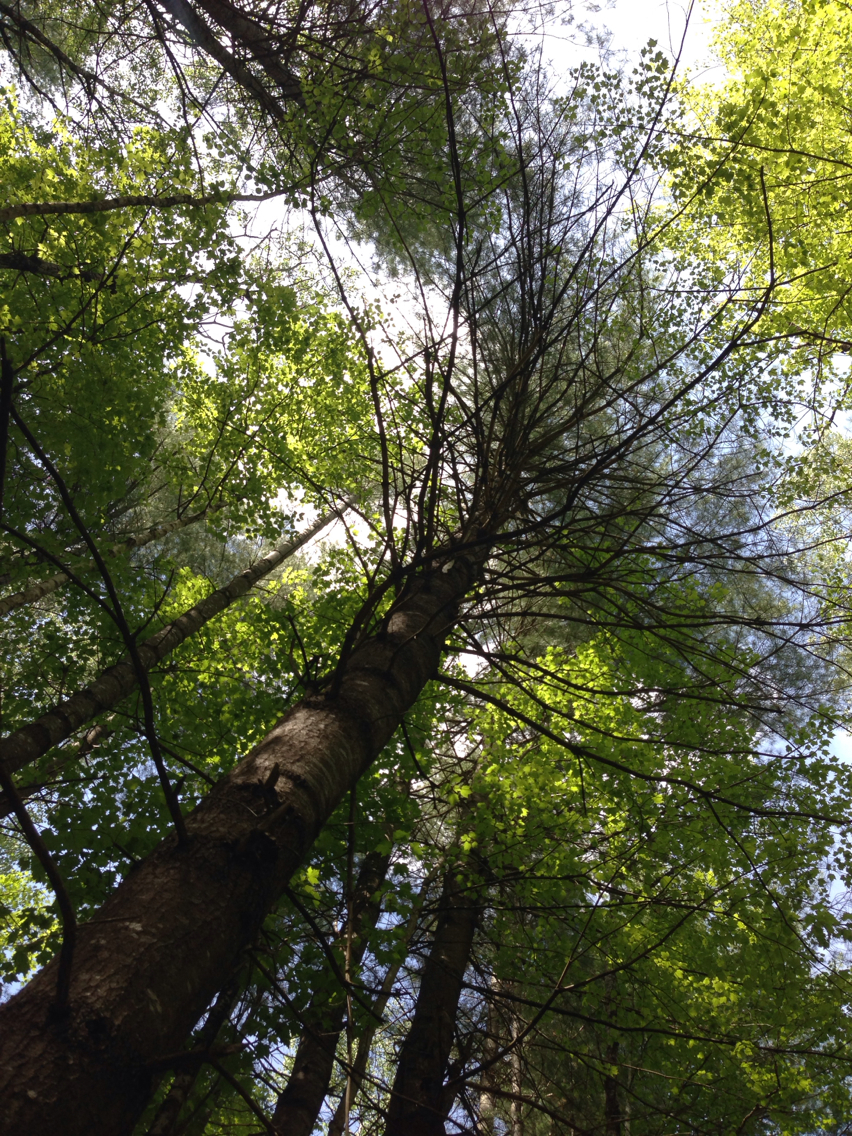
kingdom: Plantae
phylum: Tracheophyta
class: Pinopsida
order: Pinales
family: Pinaceae
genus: Pinus
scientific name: Pinus strobus
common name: Weymouth pine
